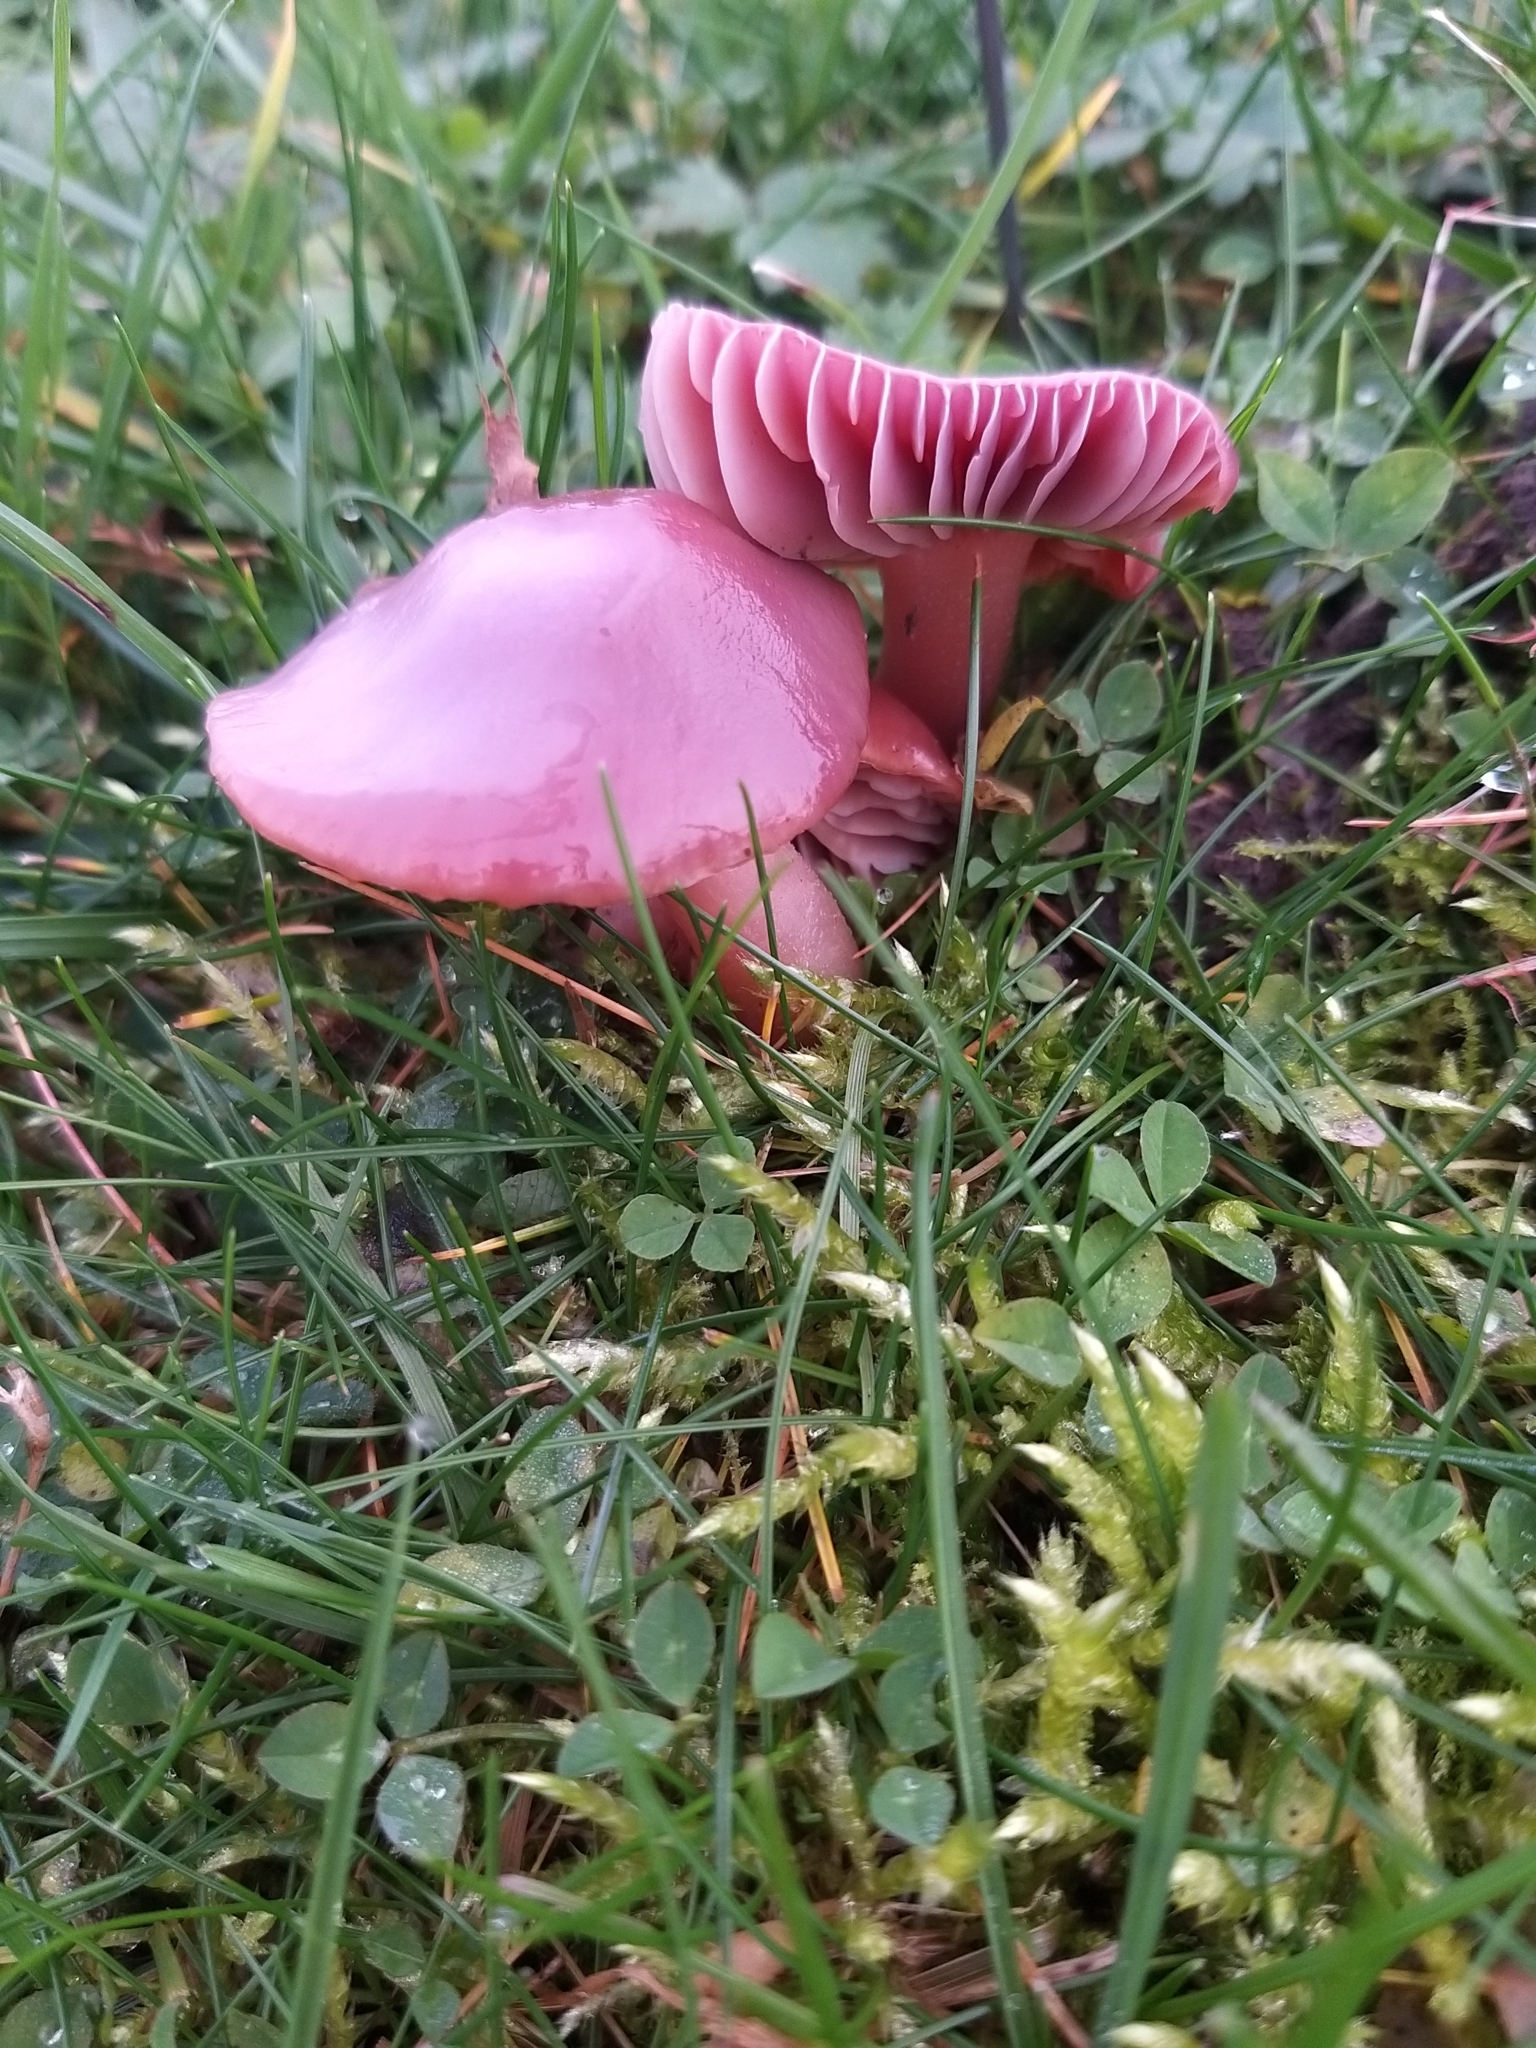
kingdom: Fungi
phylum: Basidiomycota
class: Agaricomycetes
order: Agaricales
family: Hygrophoraceae
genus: Gliophorus
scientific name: Gliophorus reginae
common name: Jubilee waxcap
